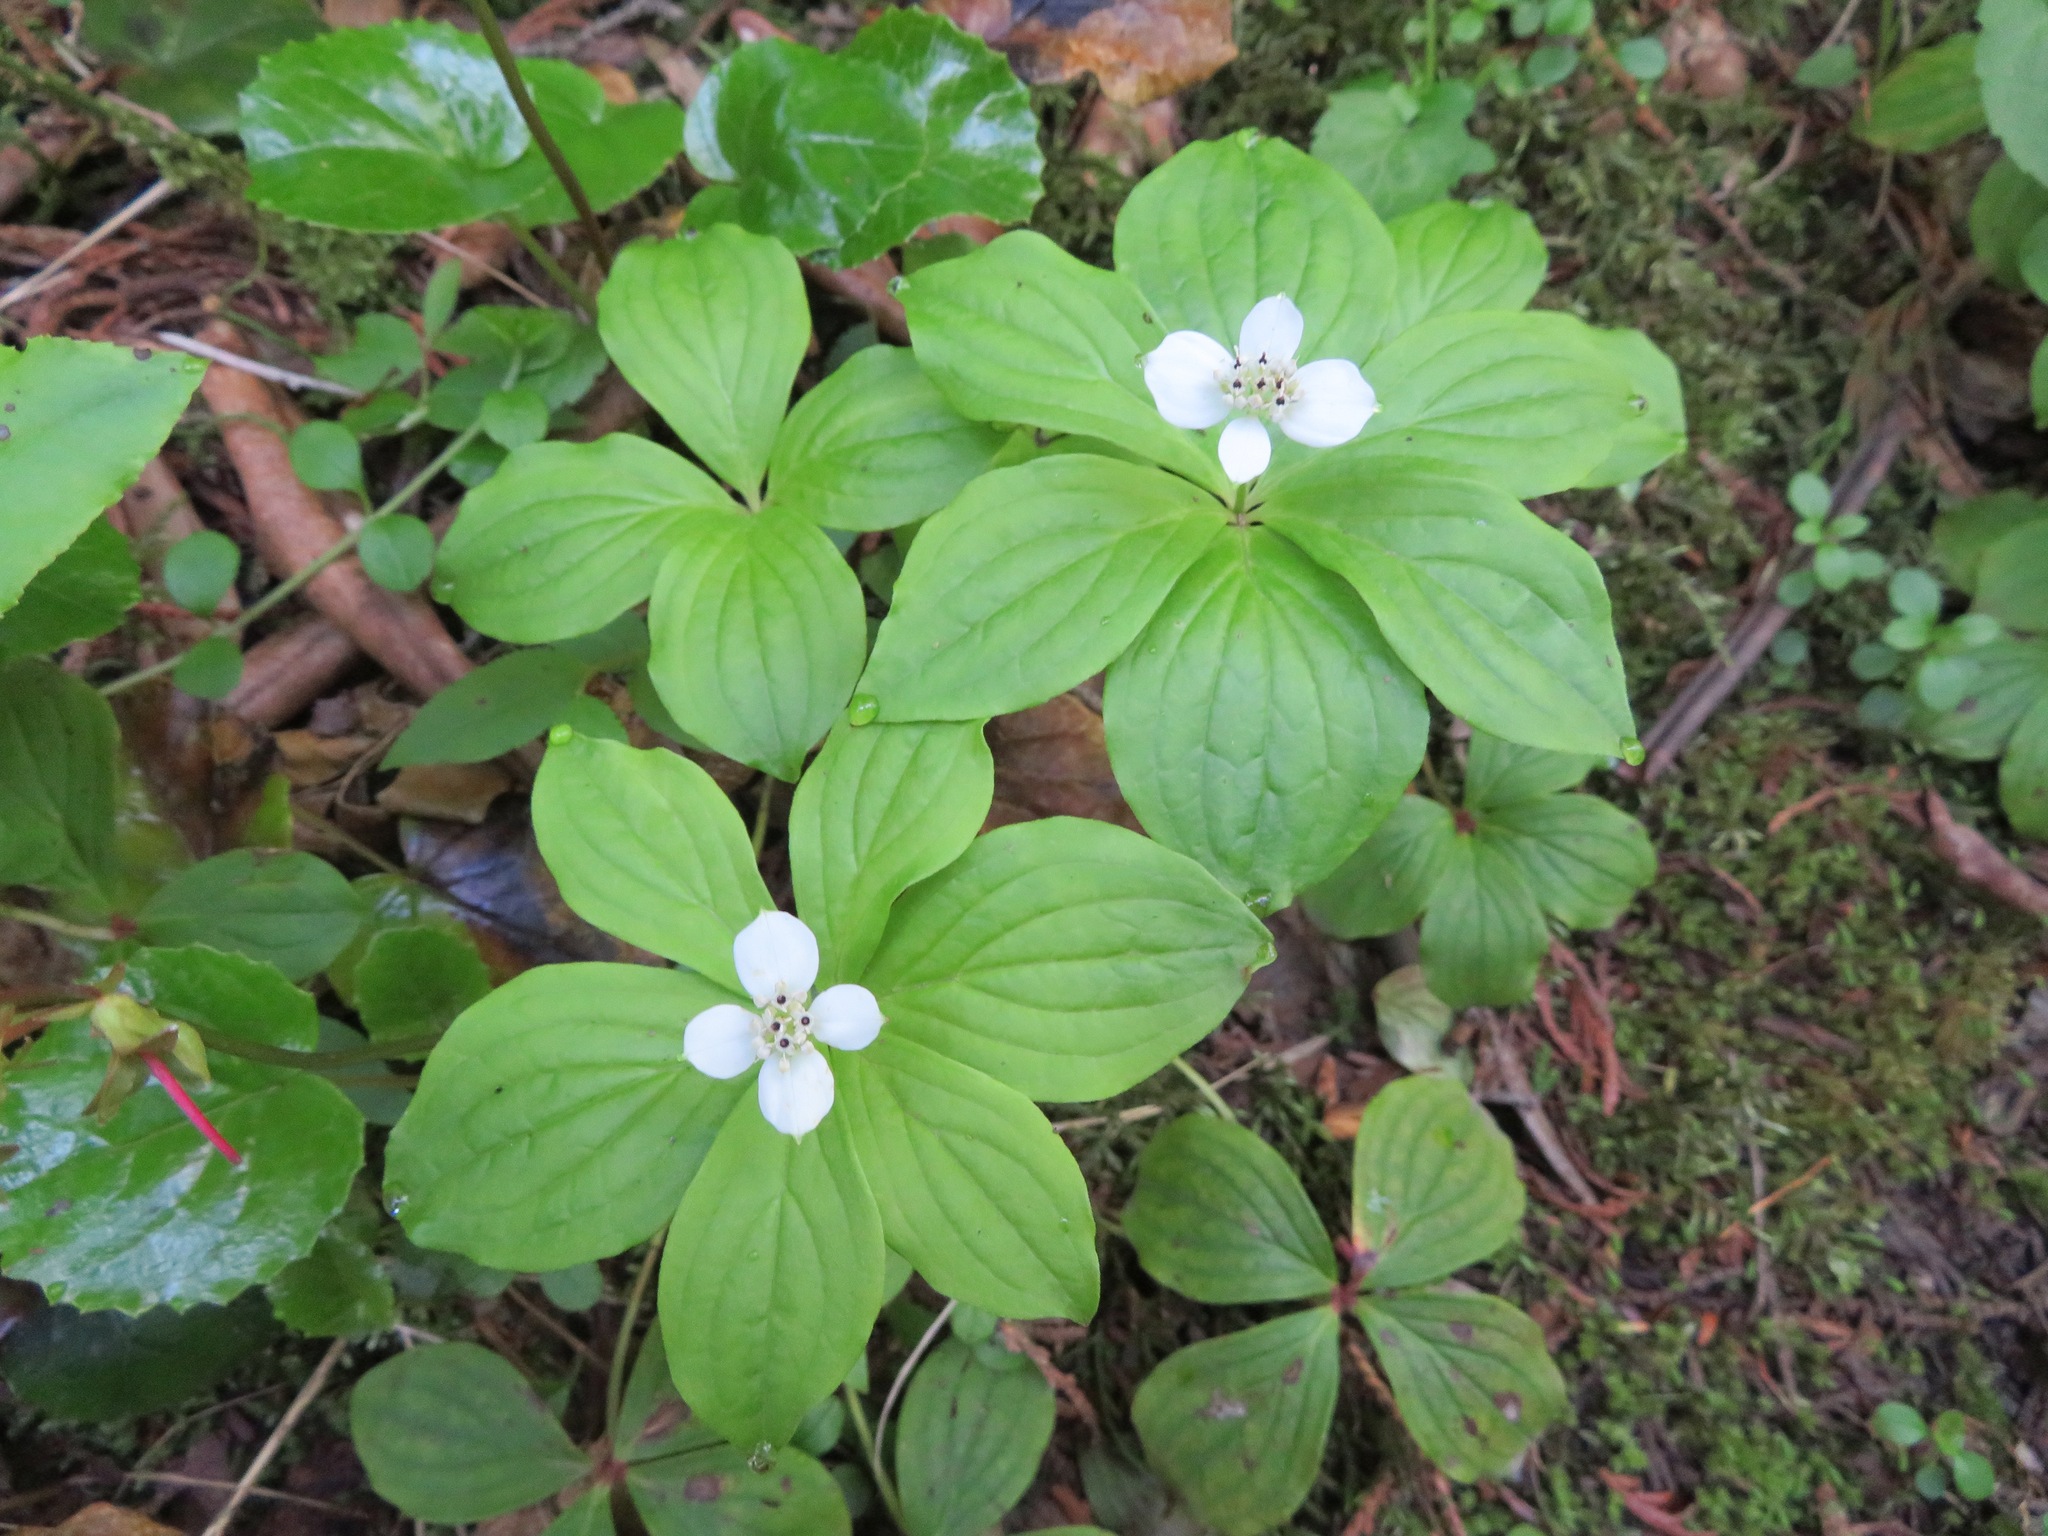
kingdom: Plantae
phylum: Tracheophyta
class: Magnoliopsida
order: Cornales
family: Cornaceae
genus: Cornus
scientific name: Cornus canadensis
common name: Creeping dogwood
